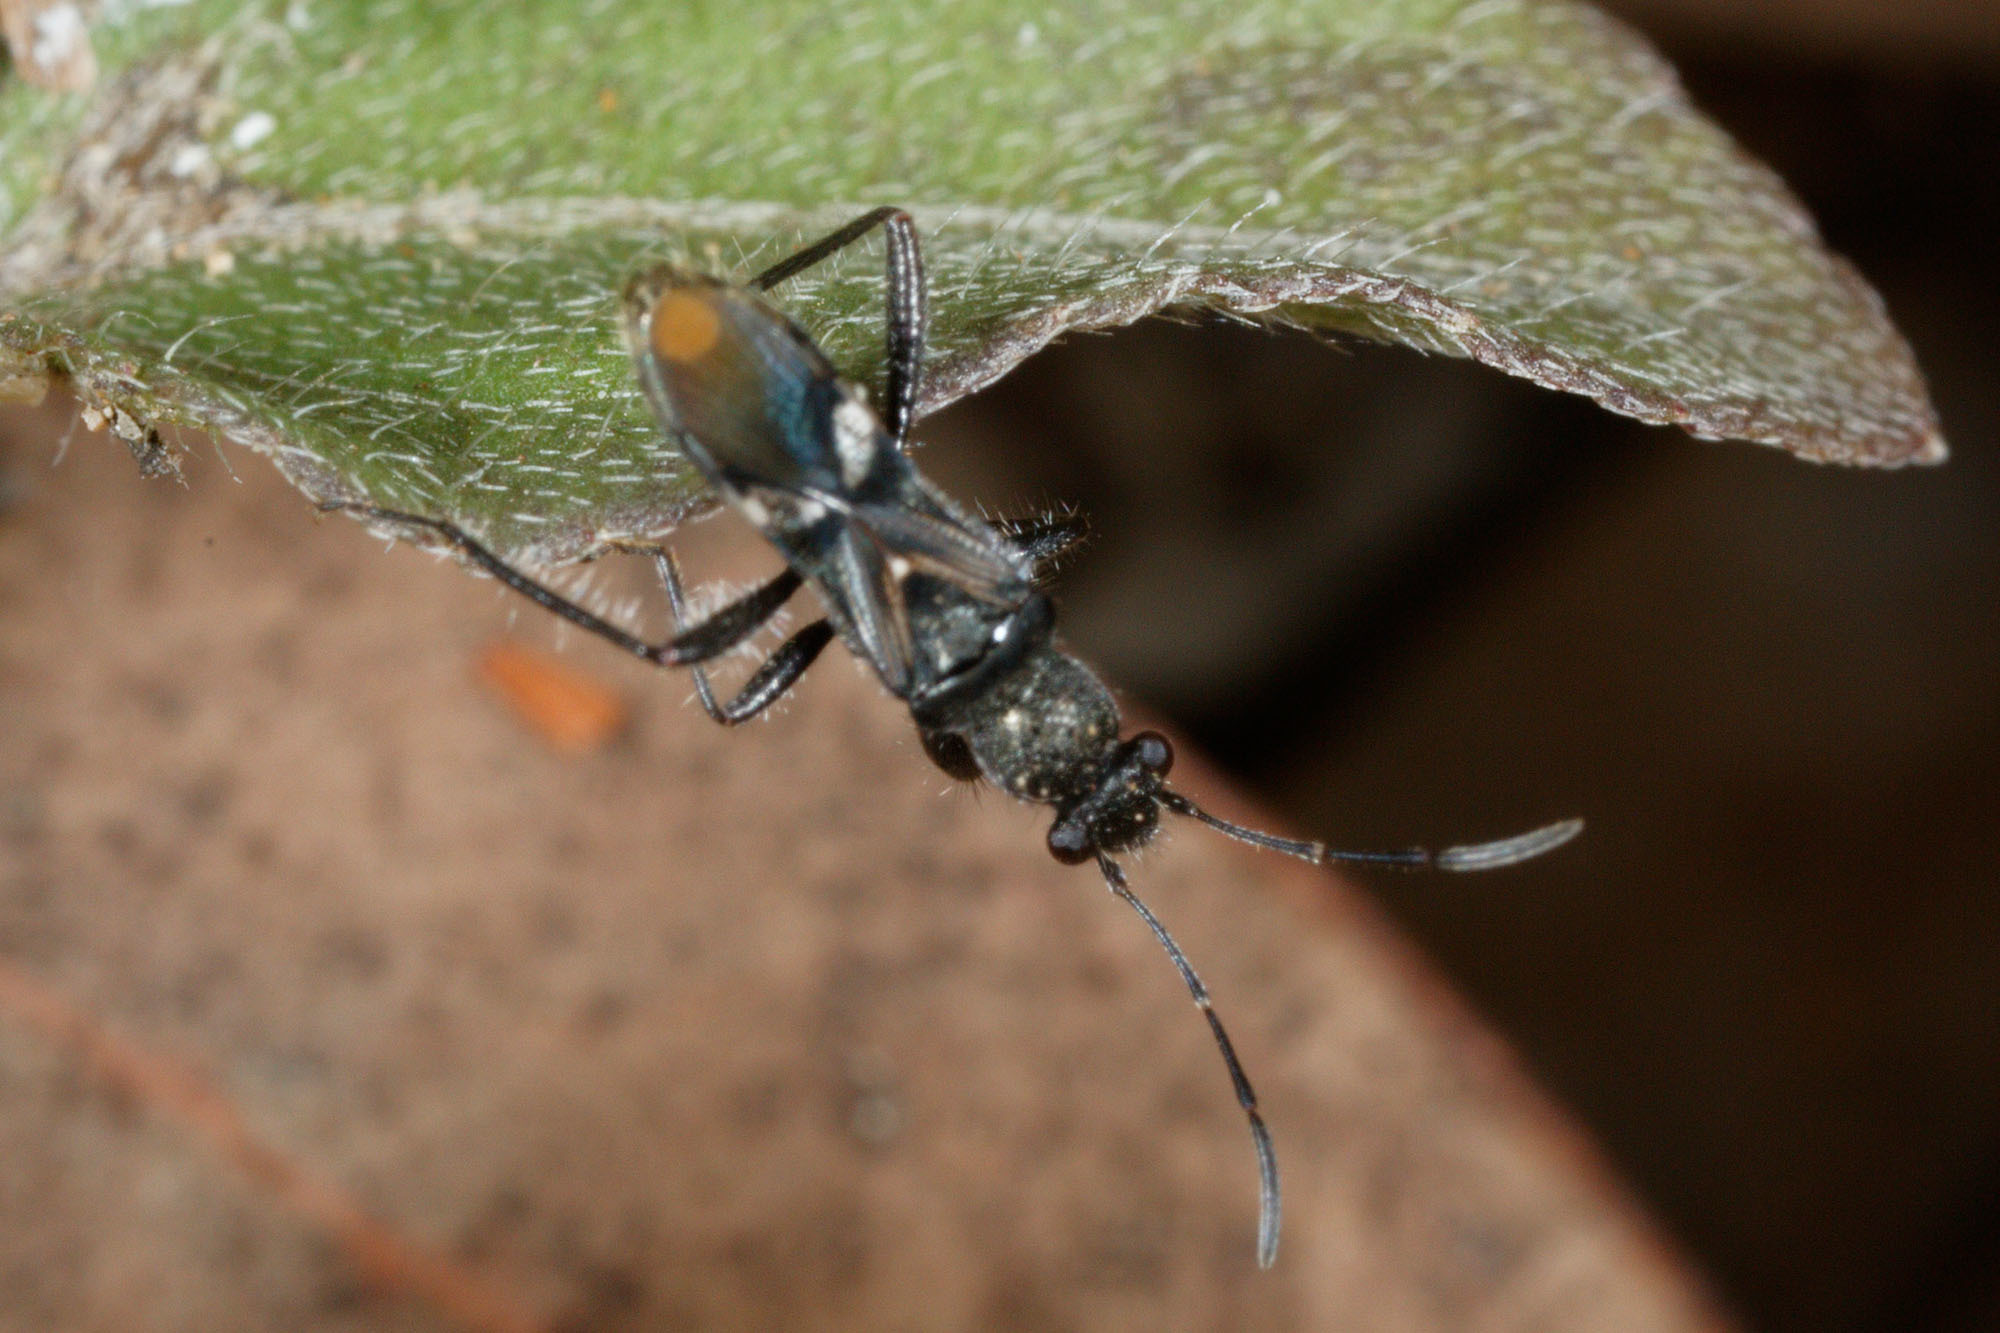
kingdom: Animalia
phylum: Arthropoda
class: Insecta
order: Hemiptera
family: Rhyparochromidae
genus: Daerlac
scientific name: Daerlac apicalis
